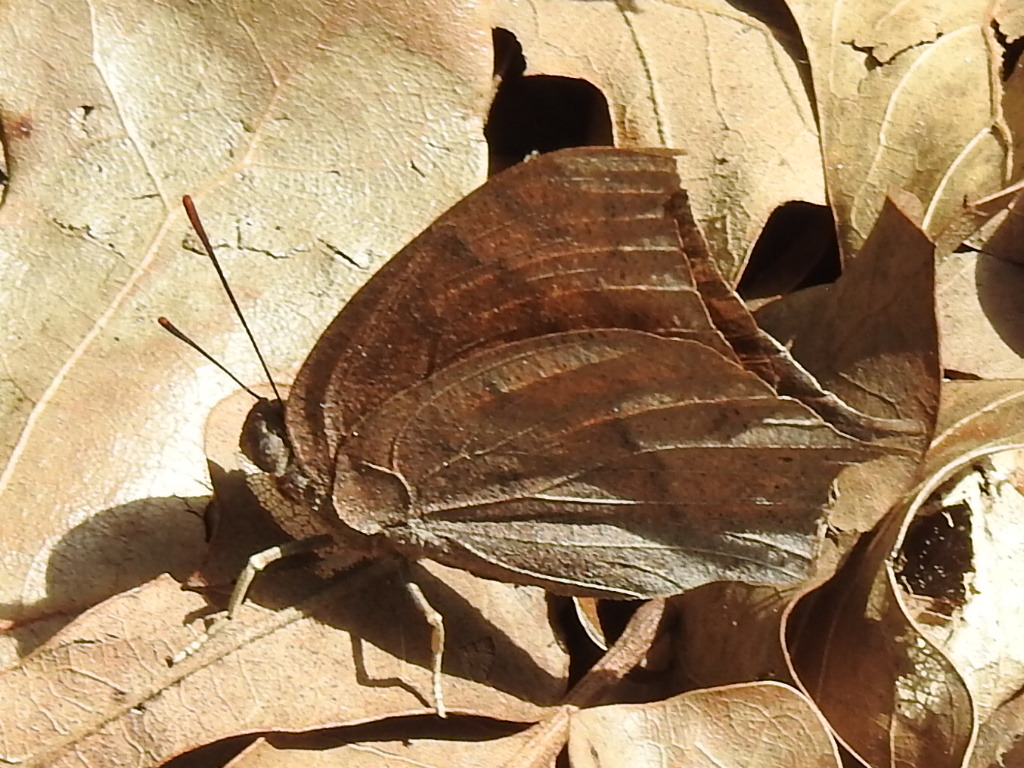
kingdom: Animalia
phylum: Arthropoda
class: Insecta
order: Lepidoptera
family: Nymphalidae
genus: Anaea
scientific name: Anaea andria
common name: Goatweed leafwing
